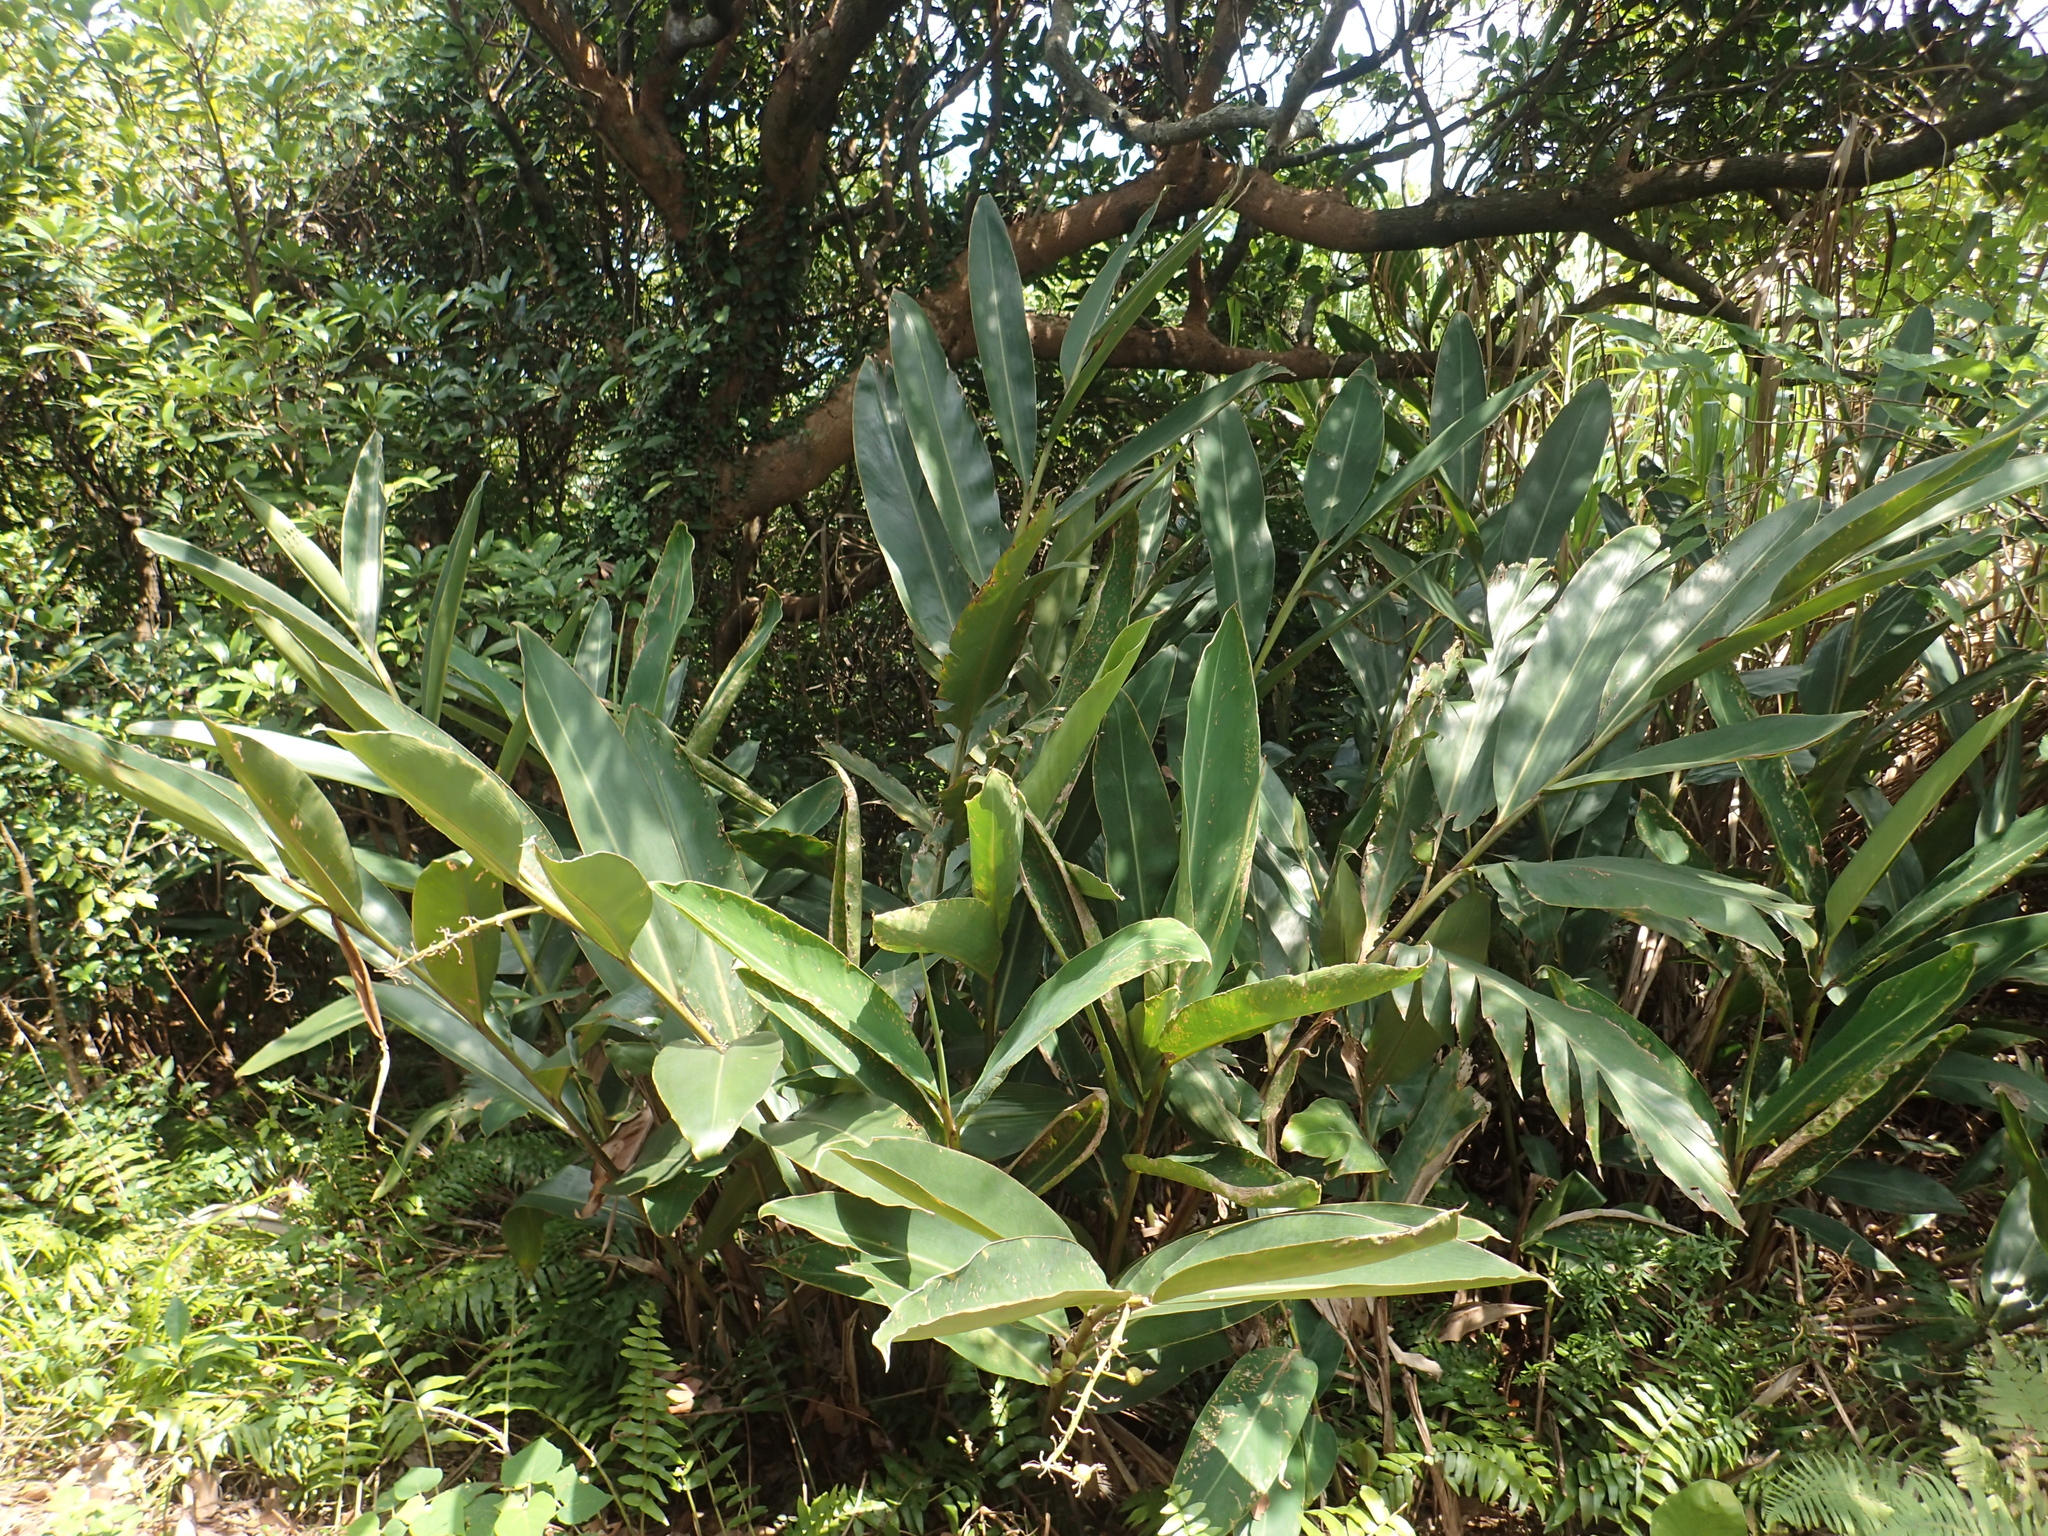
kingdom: Plantae
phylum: Tracheophyta
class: Liliopsida
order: Zingiberales
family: Zingiberaceae
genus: Alpinia
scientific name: Alpinia zerumbet
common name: Shellplant
